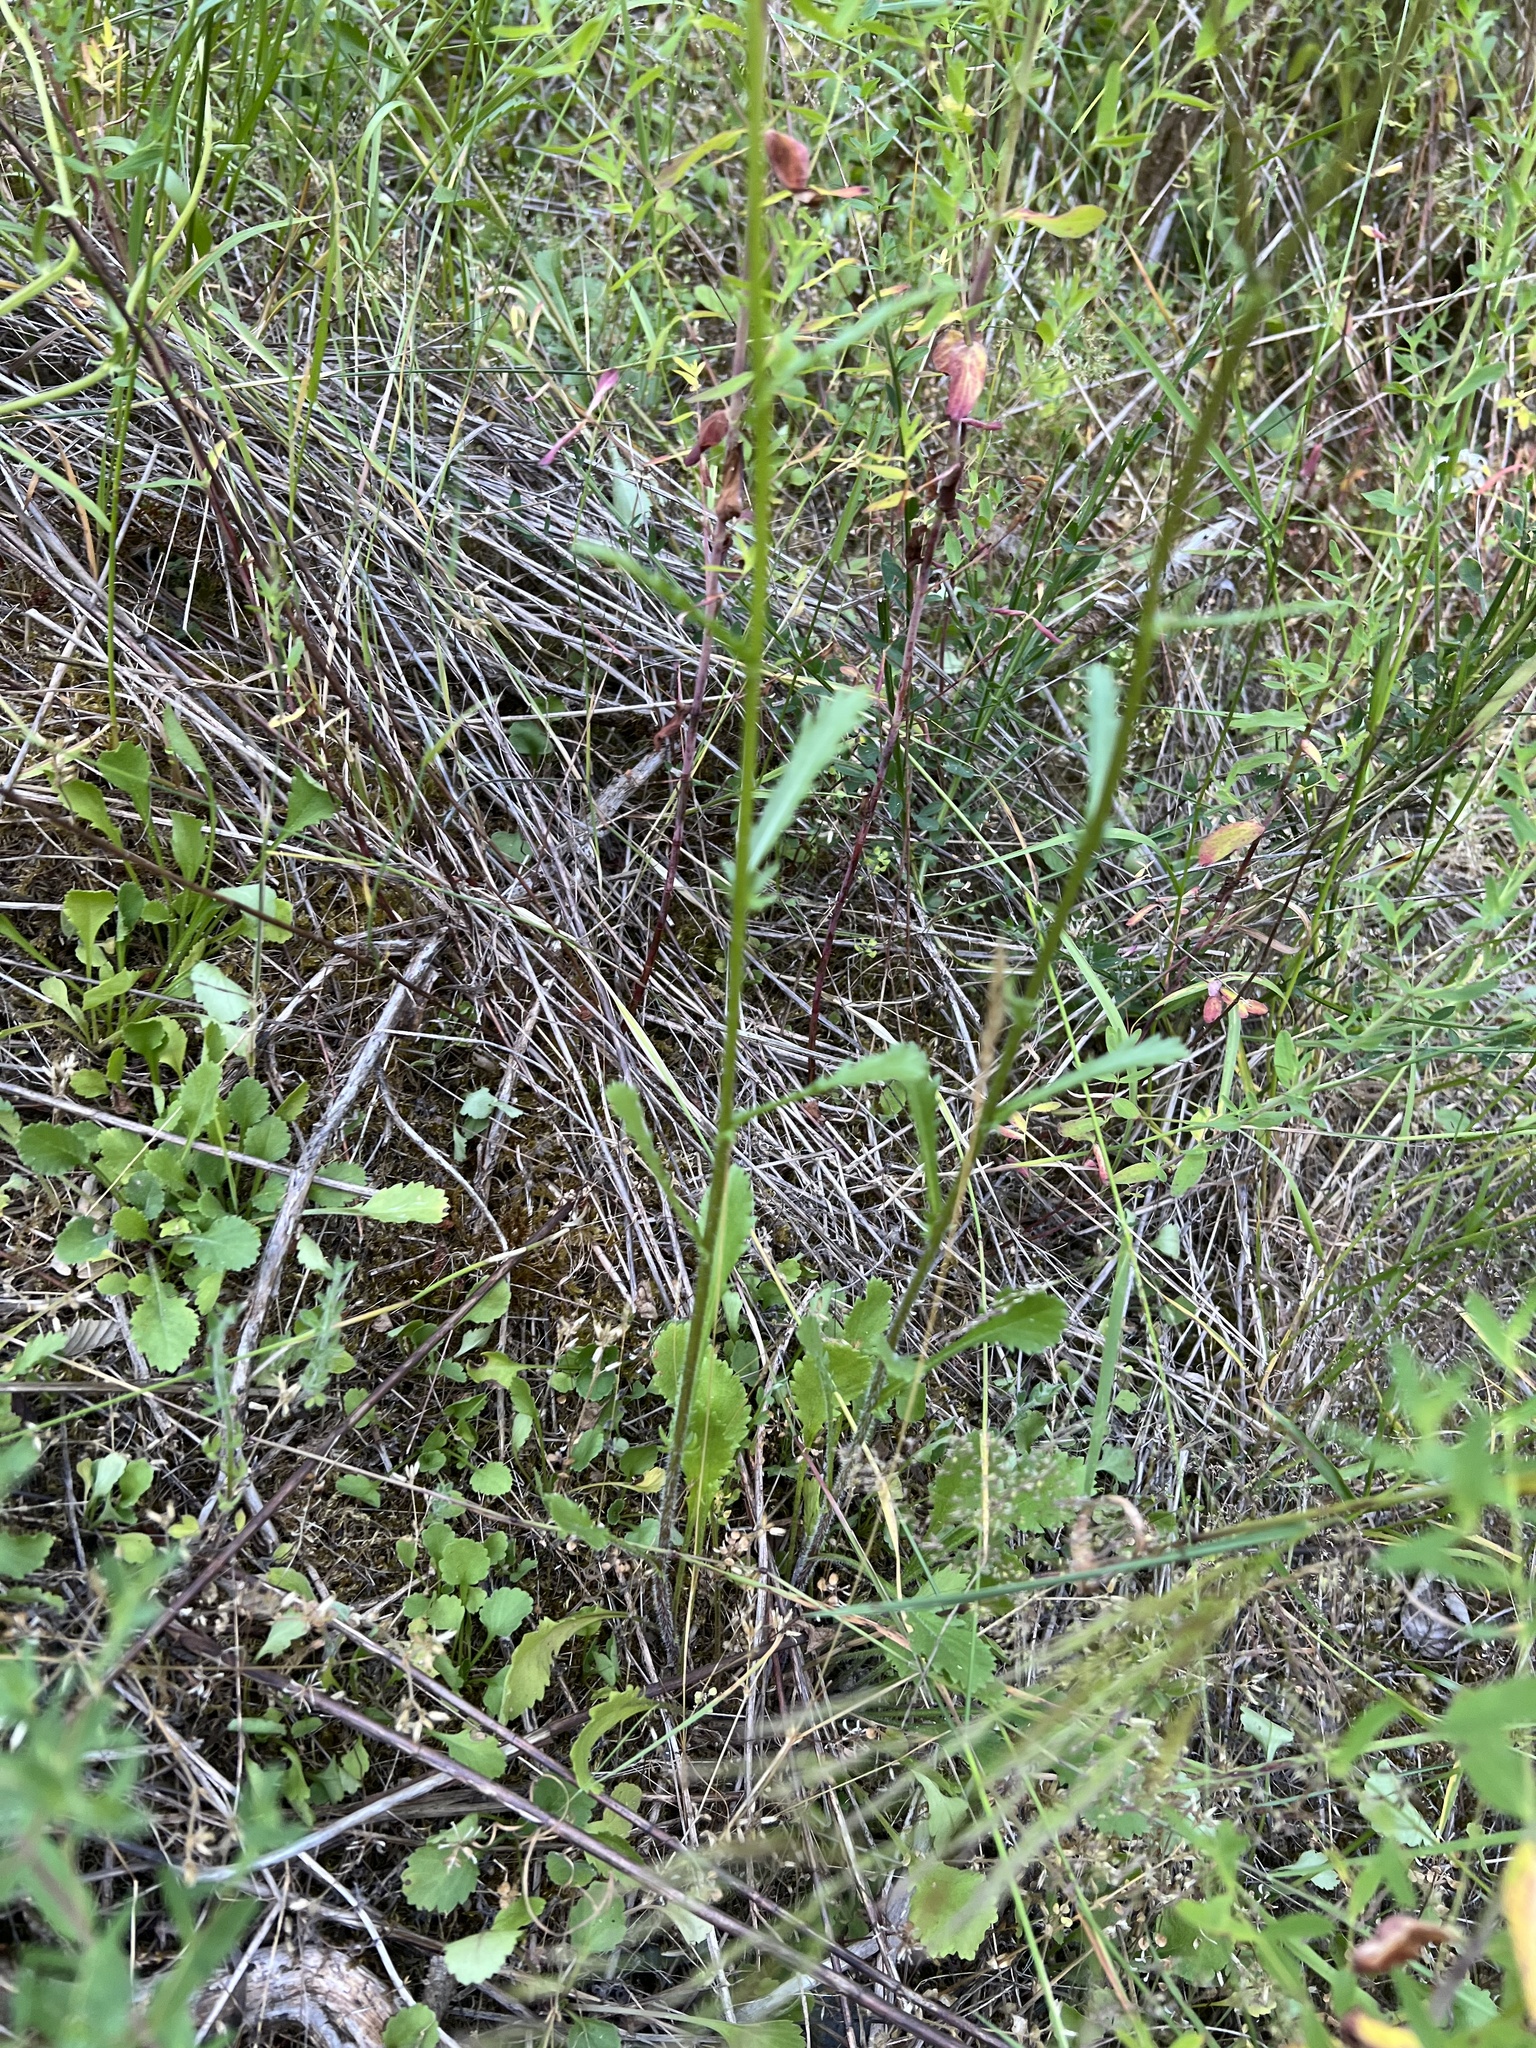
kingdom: Plantae
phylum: Tracheophyta
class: Magnoliopsida
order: Asterales
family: Asteraceae
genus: Leucanthemum
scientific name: Leucanthemum vulgare
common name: Oxeye daisy
